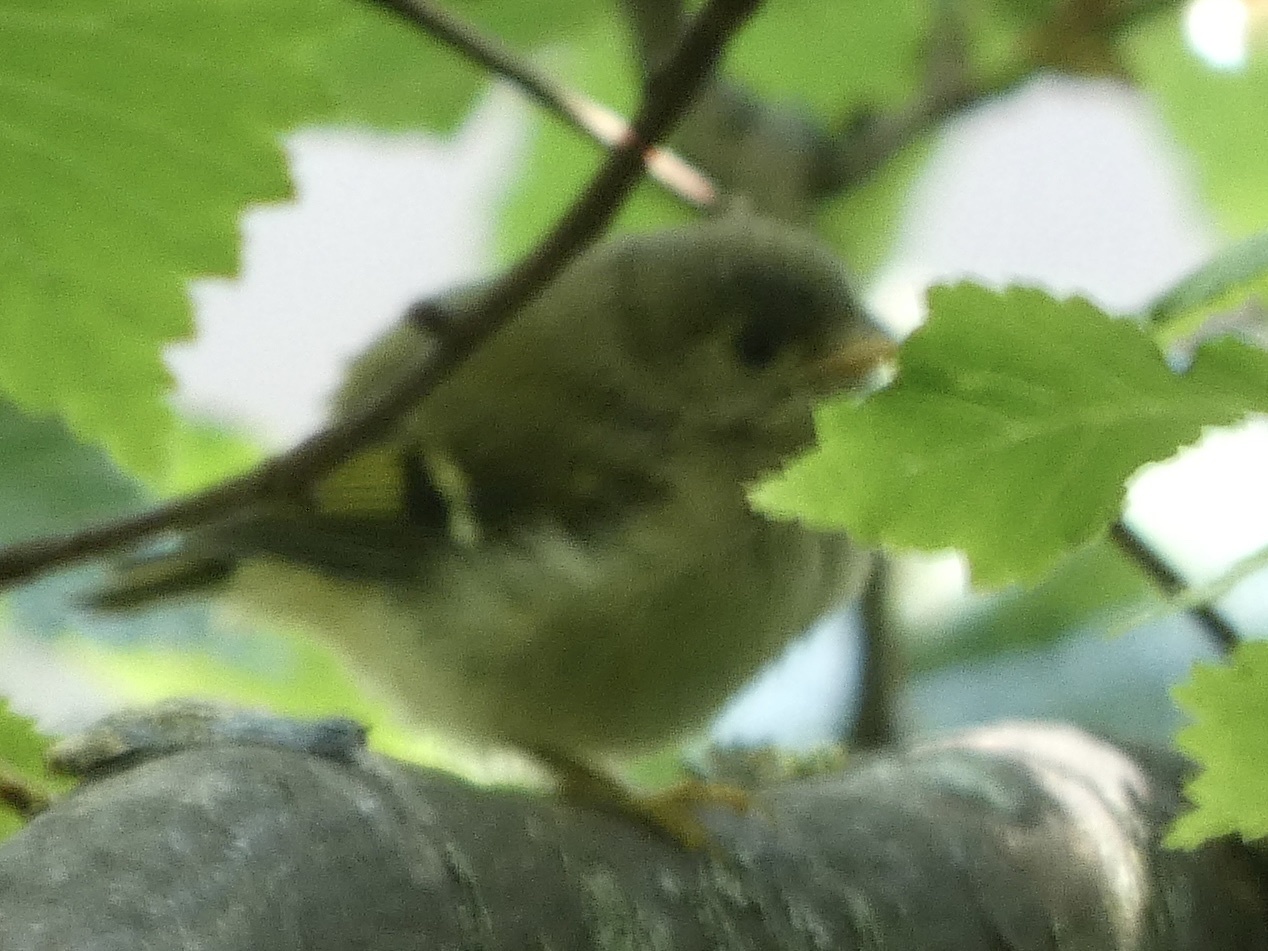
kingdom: Animalia
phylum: Chordata
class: Aves
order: Passeriformes
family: Regulidae
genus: Regulus
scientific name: Regulus regulus
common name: Goldcrest
